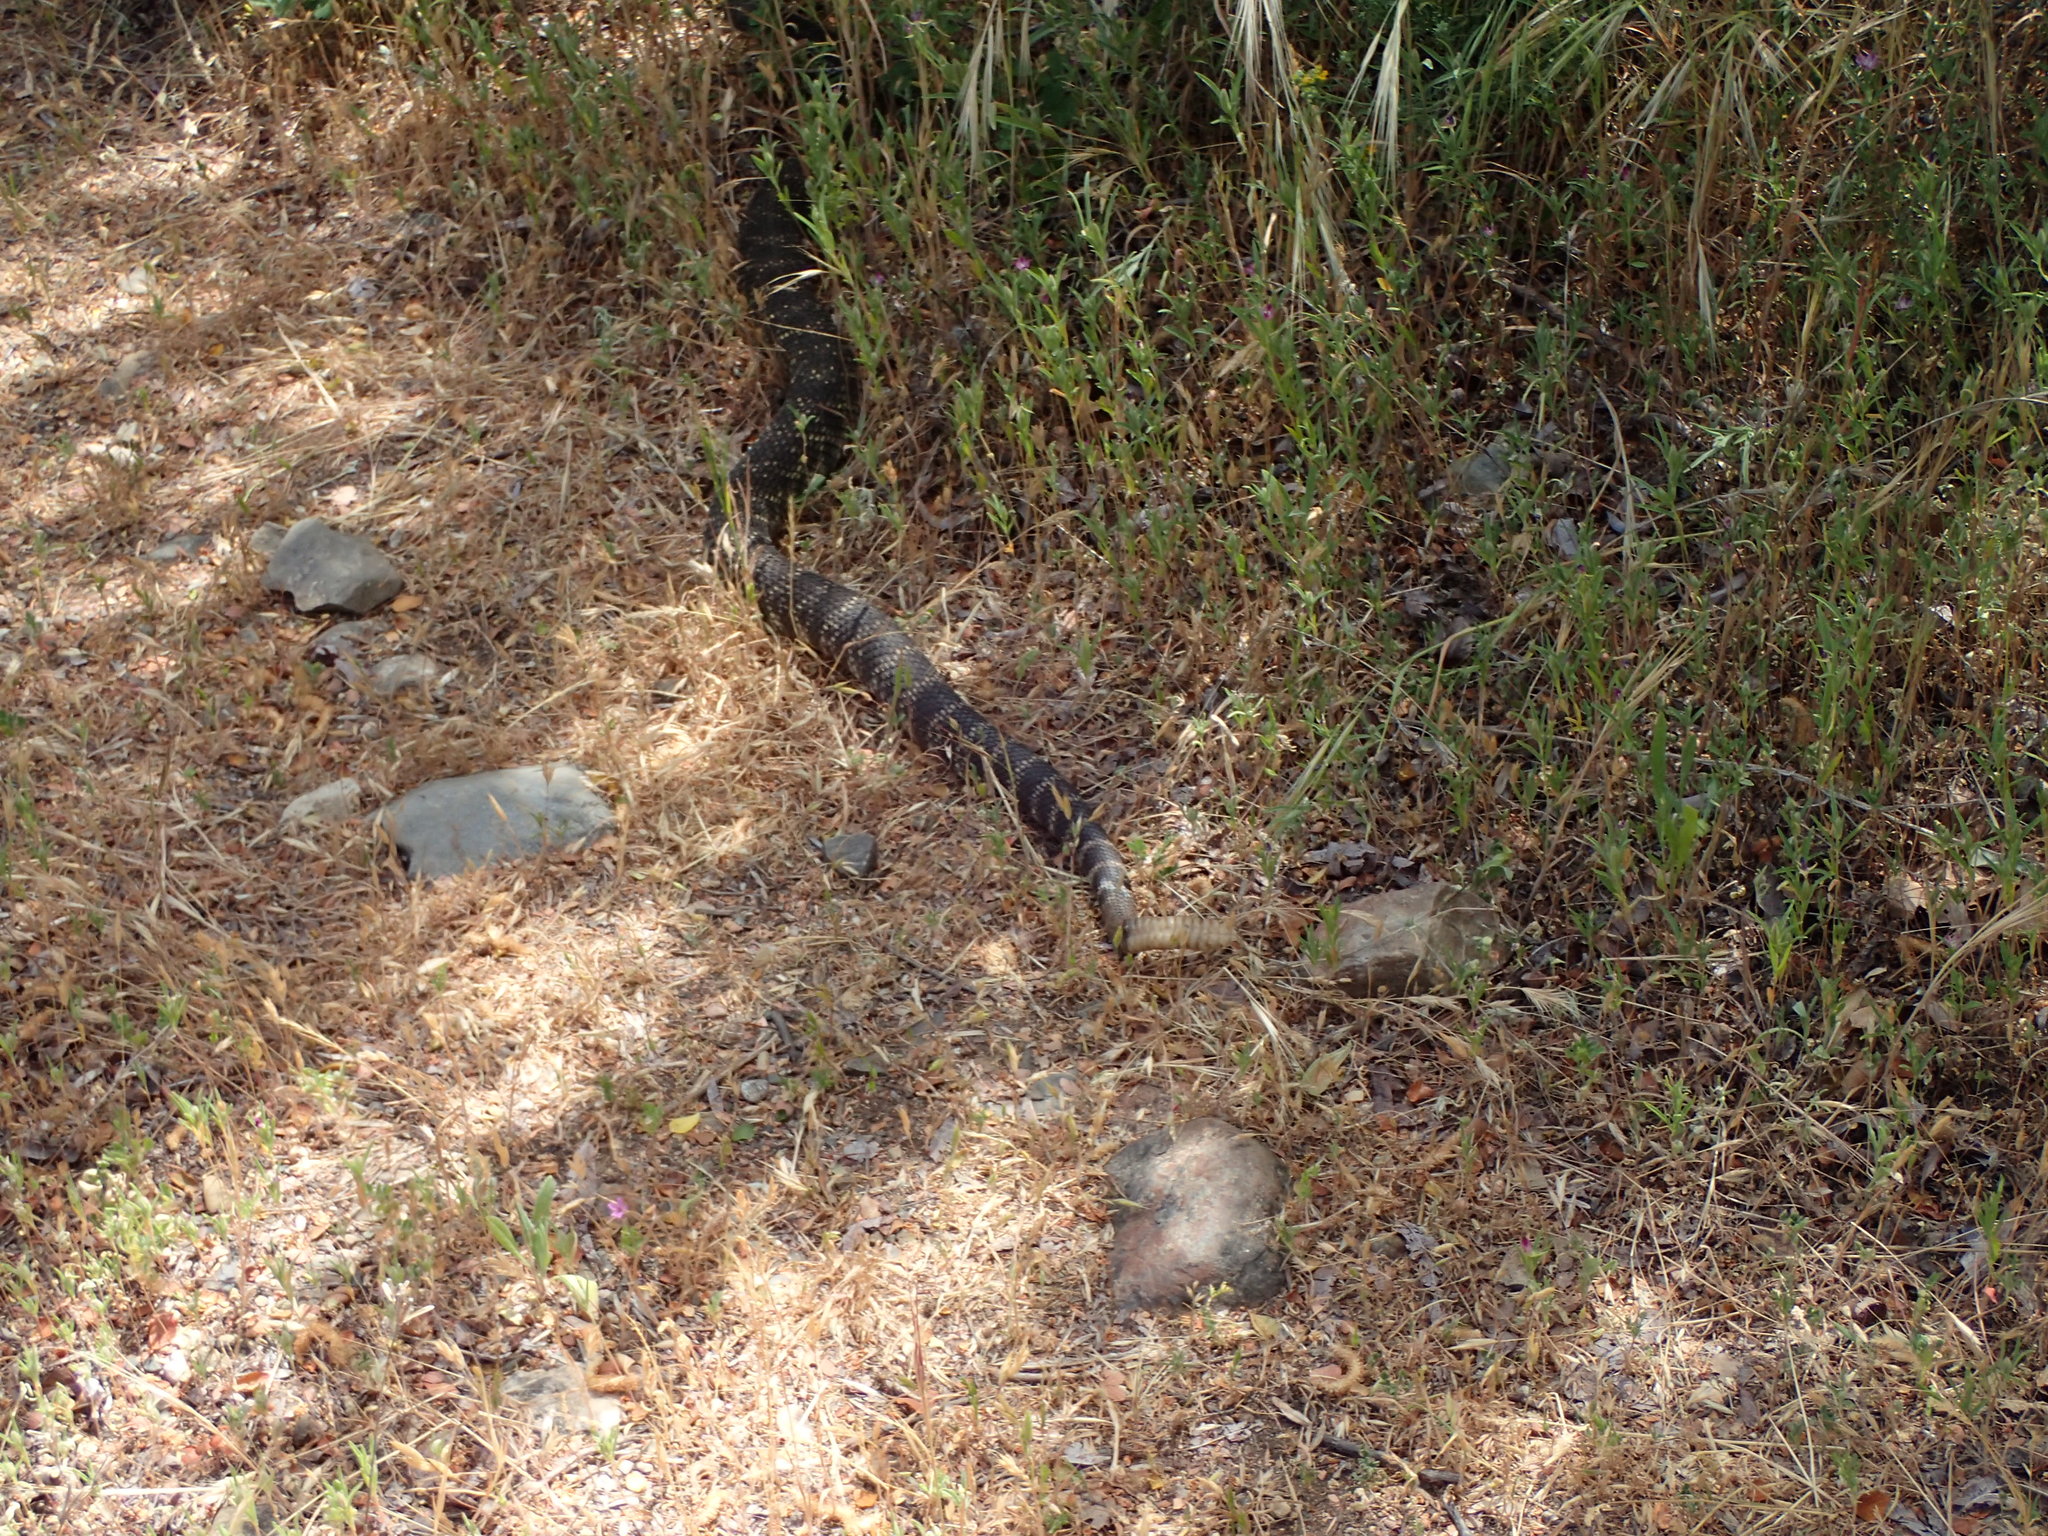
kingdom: Animalia
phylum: Chordata
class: Squamata
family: Viperidae
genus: Crotalus
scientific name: Crotalus oreganus
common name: Abyssus
